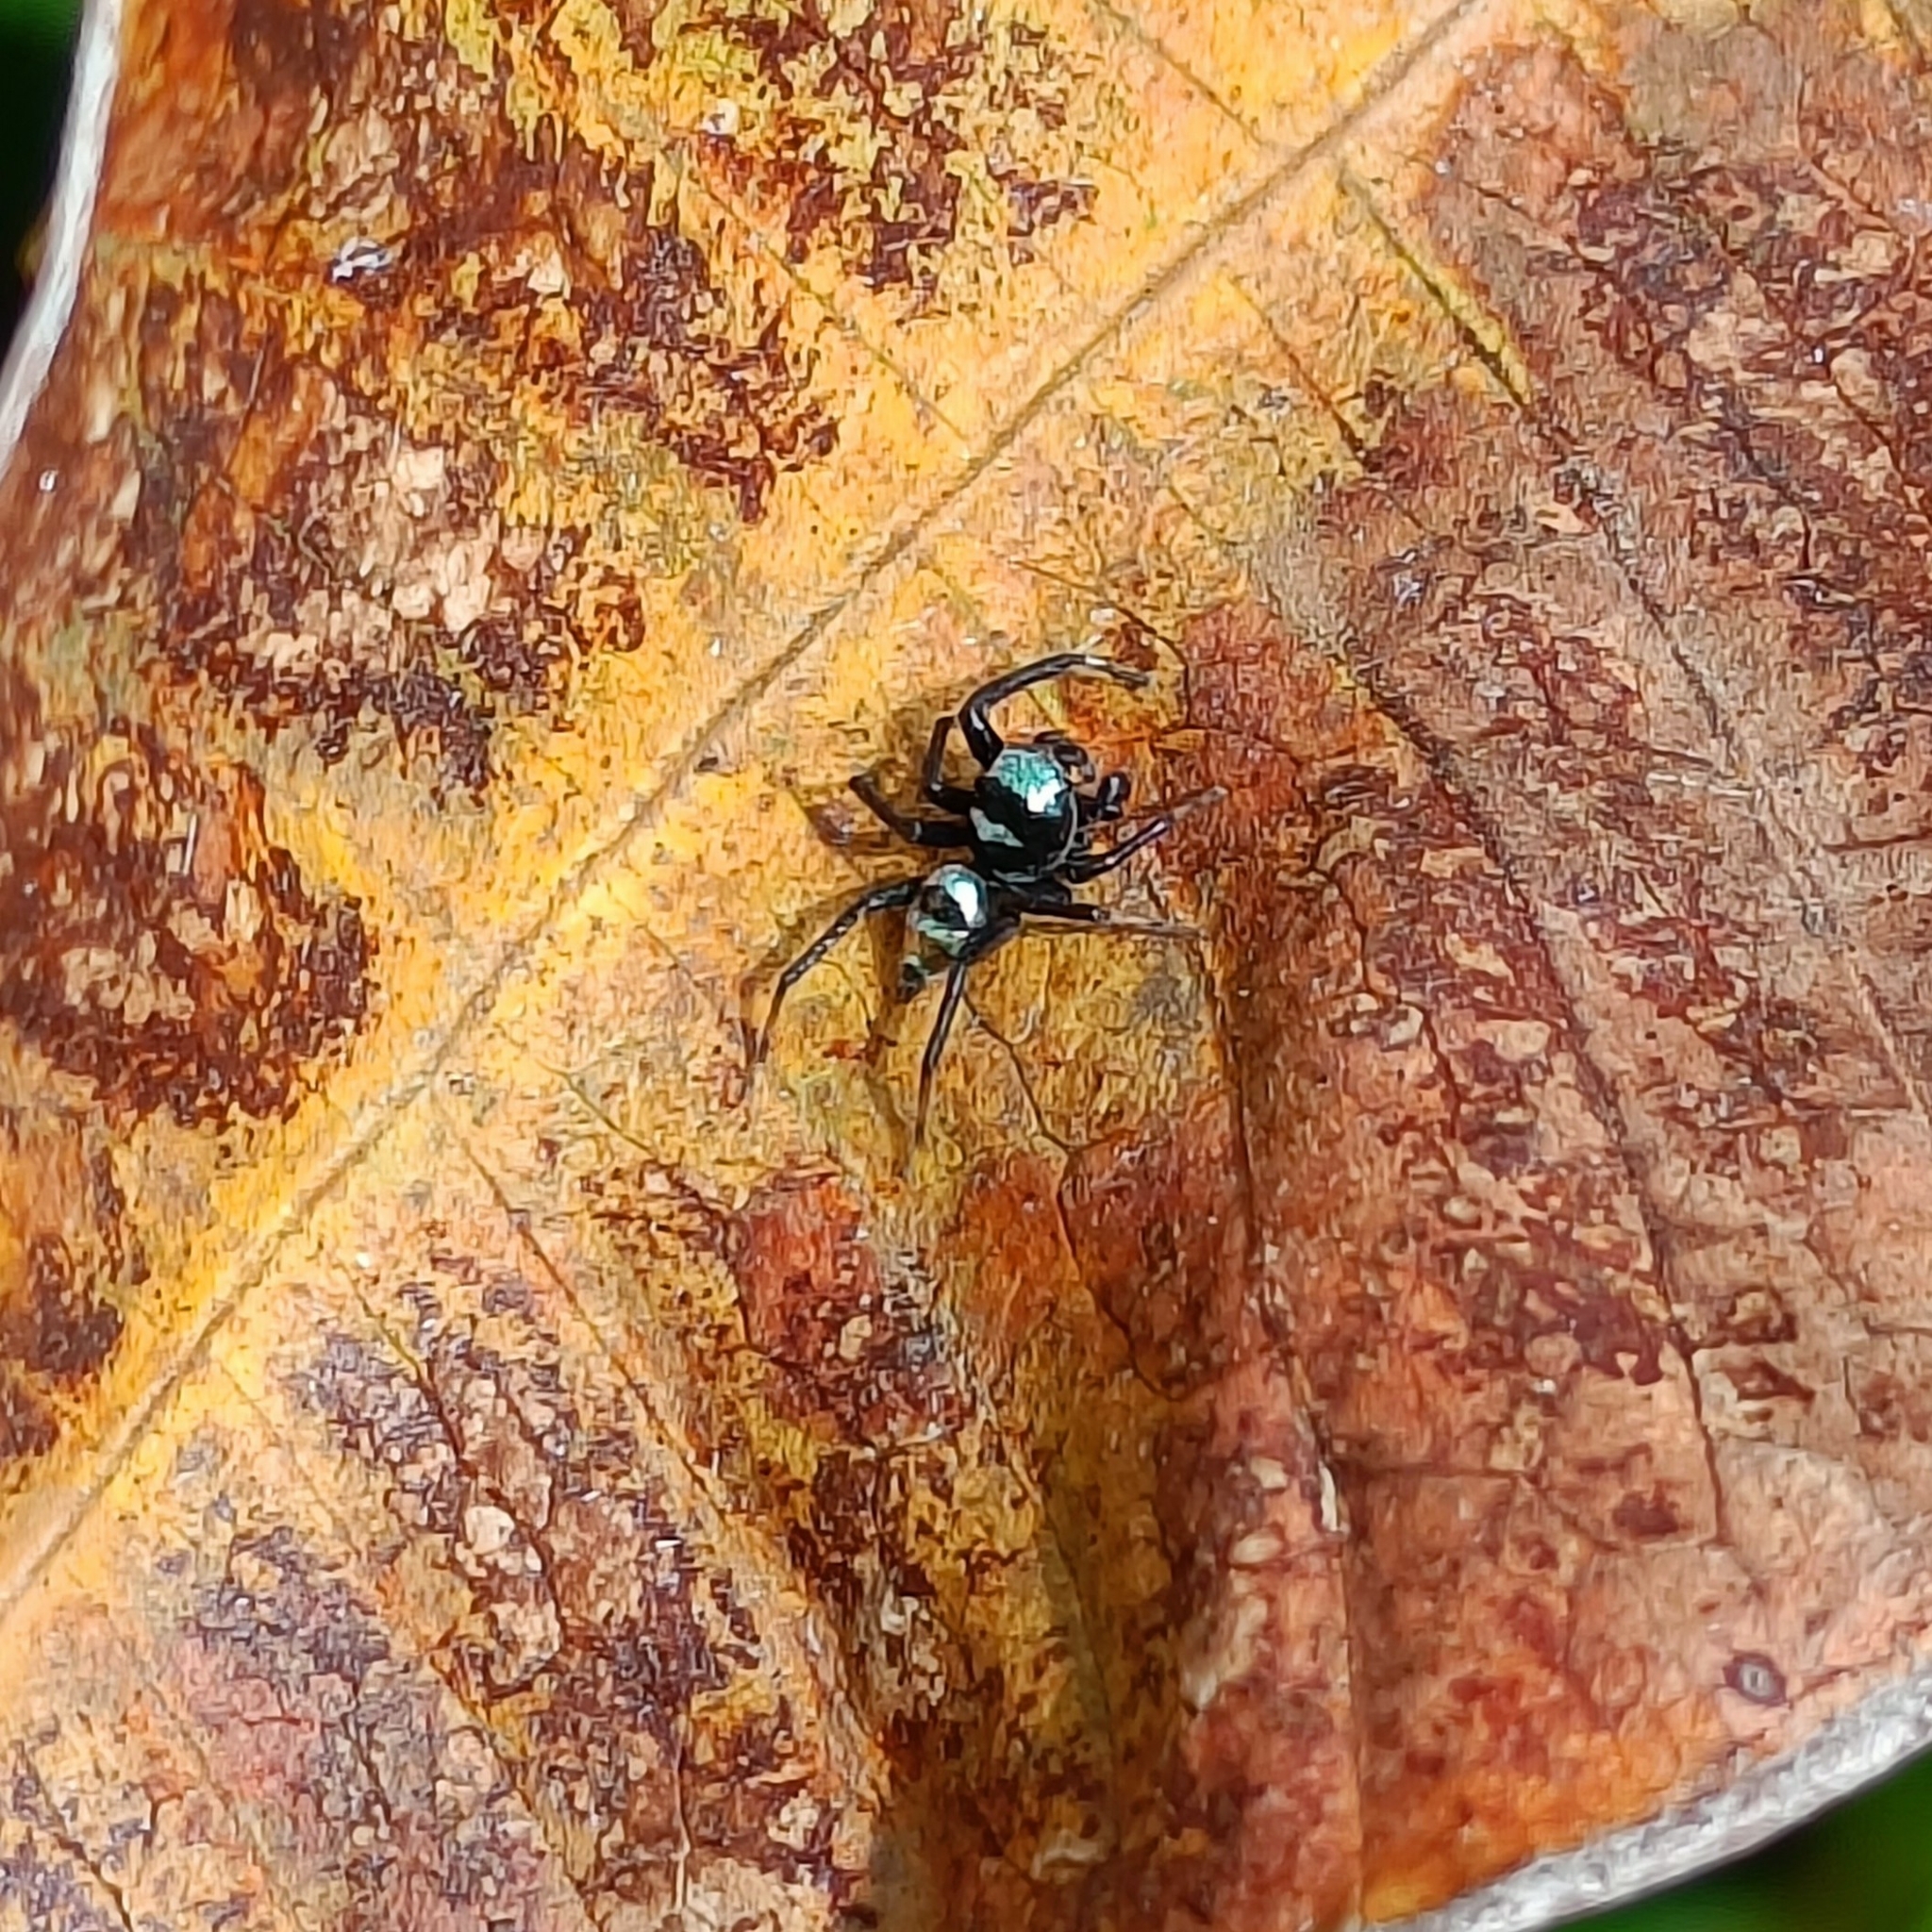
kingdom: Animalia
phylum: Arthropoda
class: Arachnida
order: Araneae
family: Salticidae
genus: Phintella
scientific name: Phintella vittata
